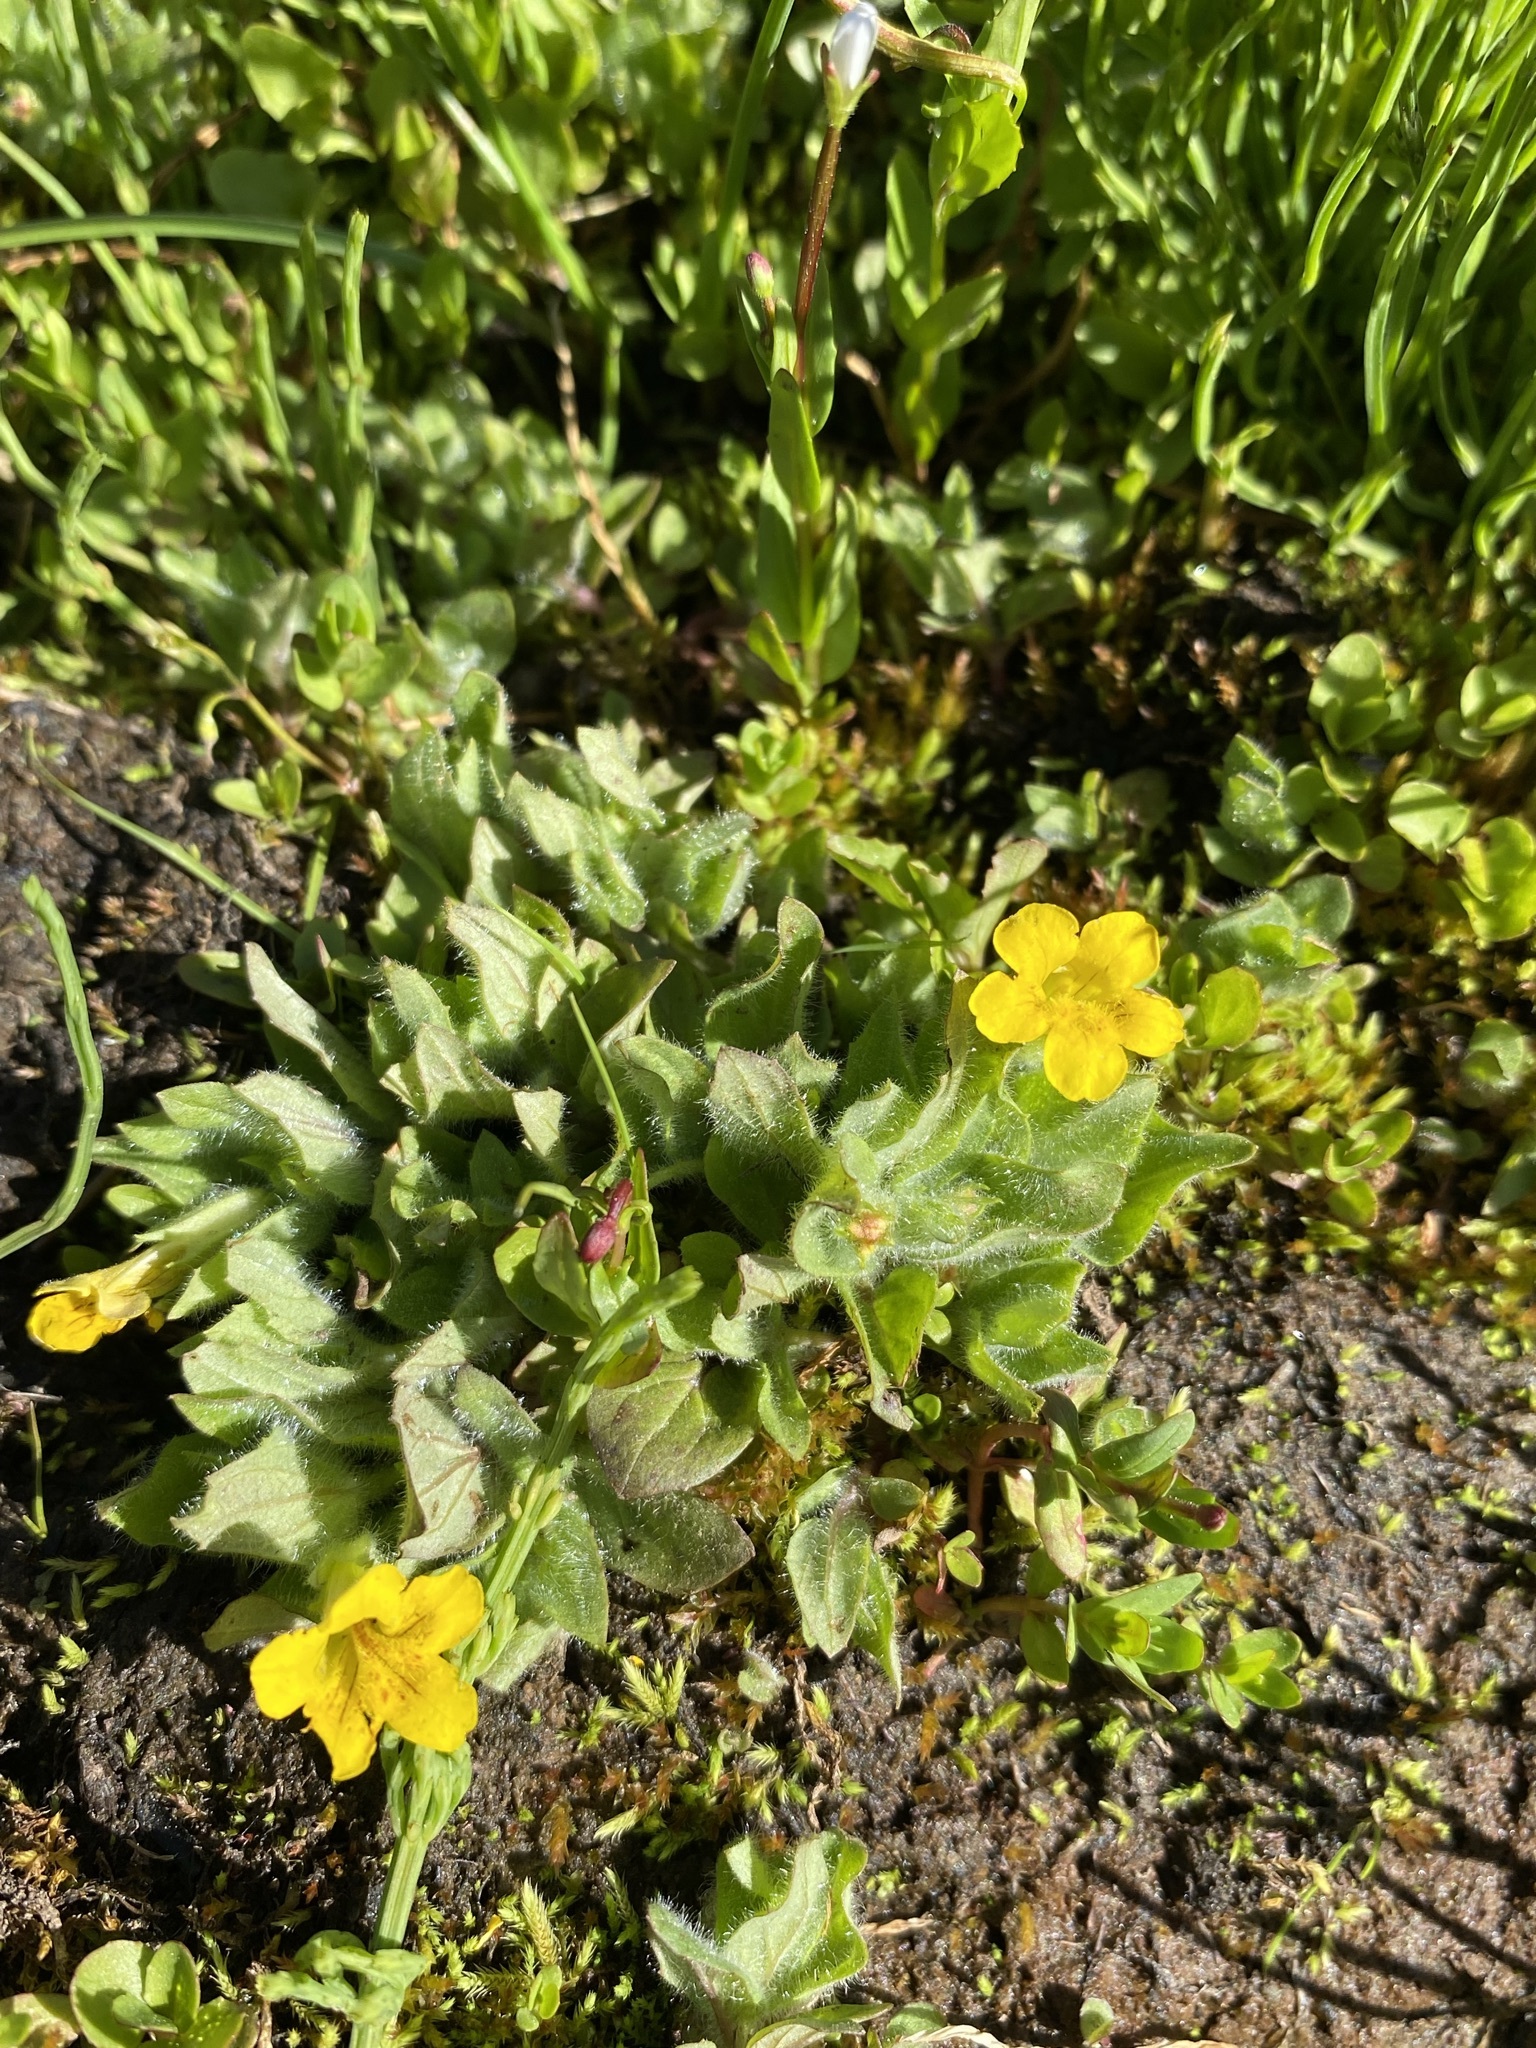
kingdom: Plantae
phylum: Tracheophyta
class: Magnoliopsida
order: Lamiales
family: Phrymaceae
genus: Erythranthe
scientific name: Erythranthe moschata
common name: Muskflower
